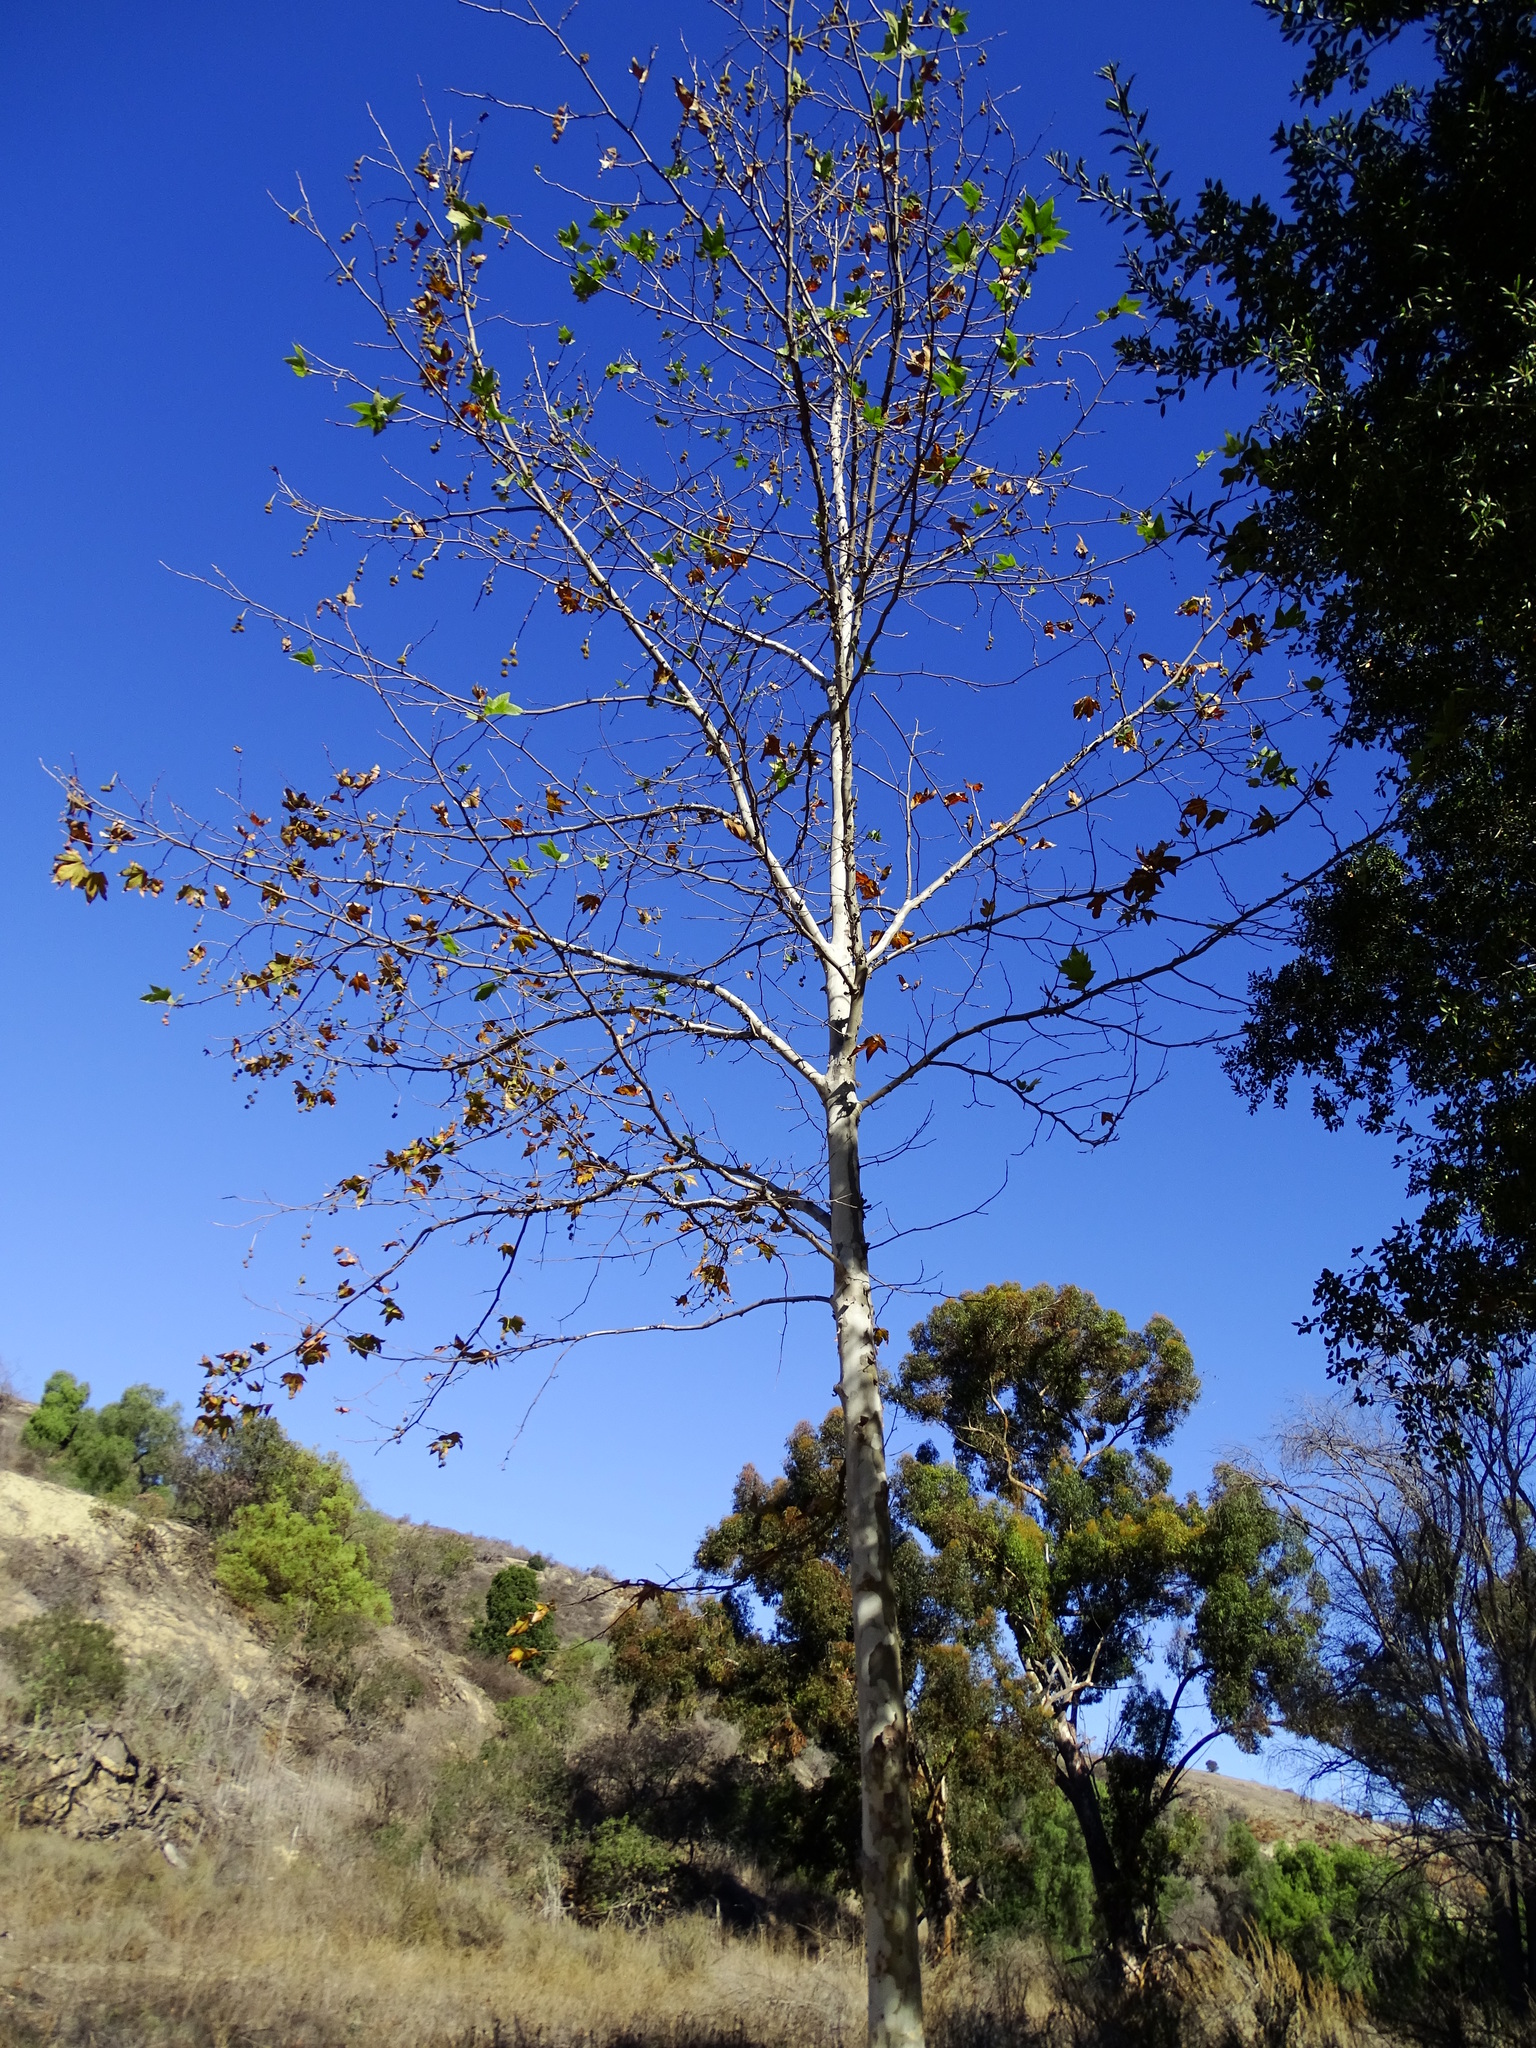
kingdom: Plantae
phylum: Tracheophyta
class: Magnoliopsida
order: Proteales
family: Platanaceae
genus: Platanus
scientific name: Platanus racemosa
